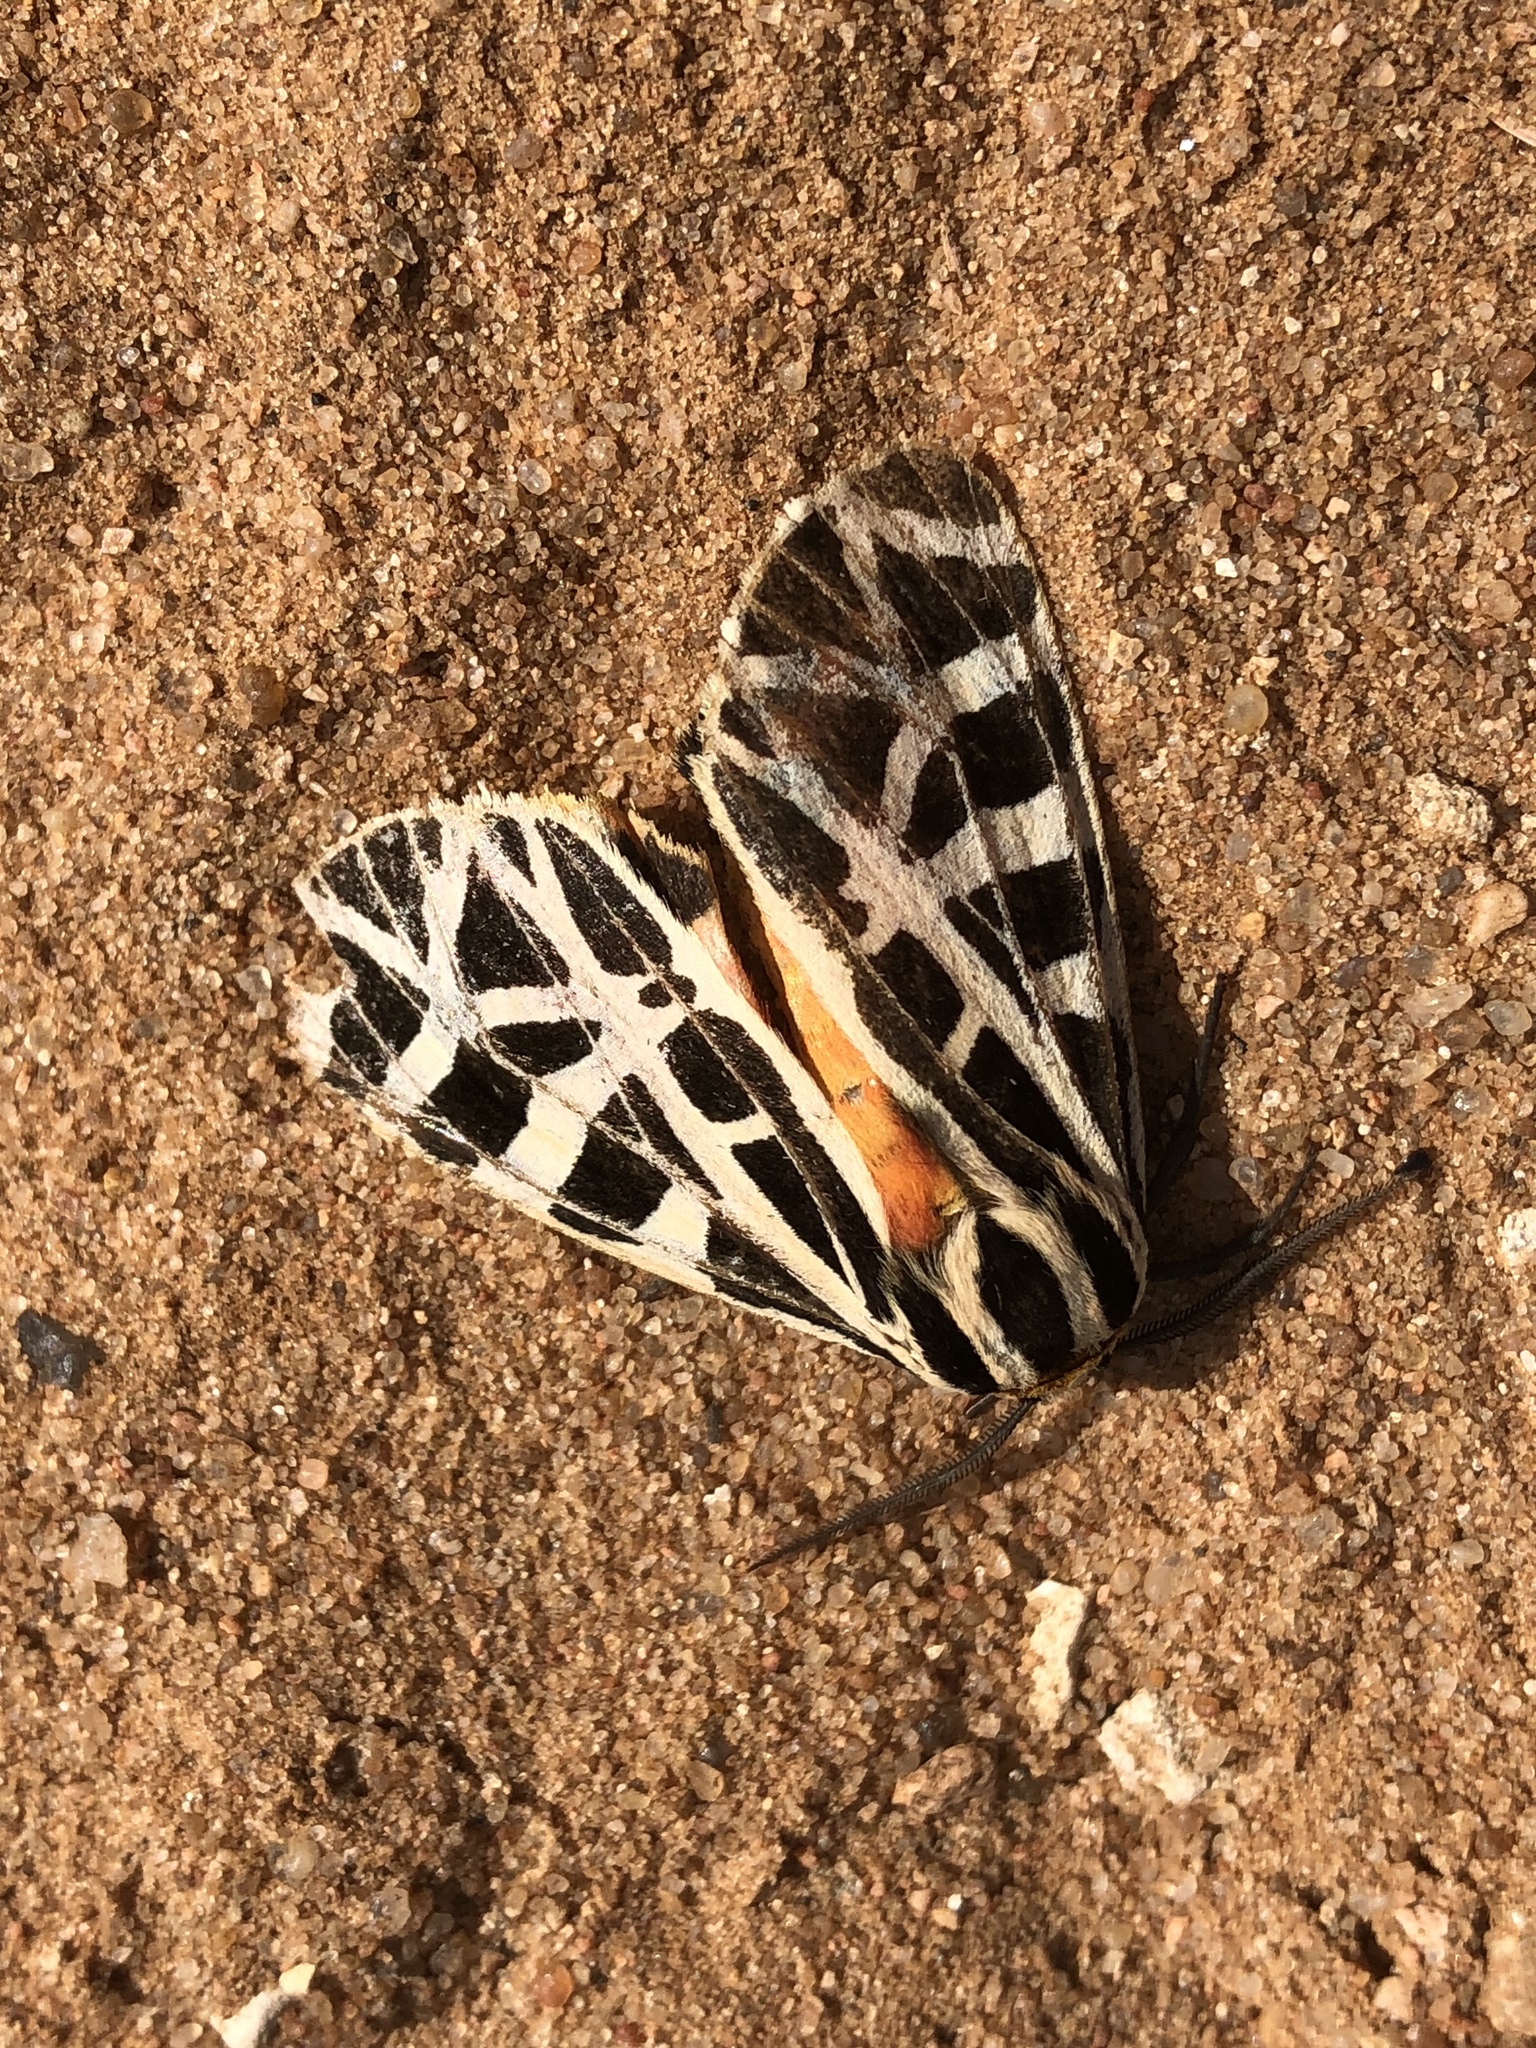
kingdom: Animalia
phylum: Arthropoda
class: Insecta
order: Lepidoptera
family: Erebidae
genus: Grammia
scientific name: Grammia parthenice
